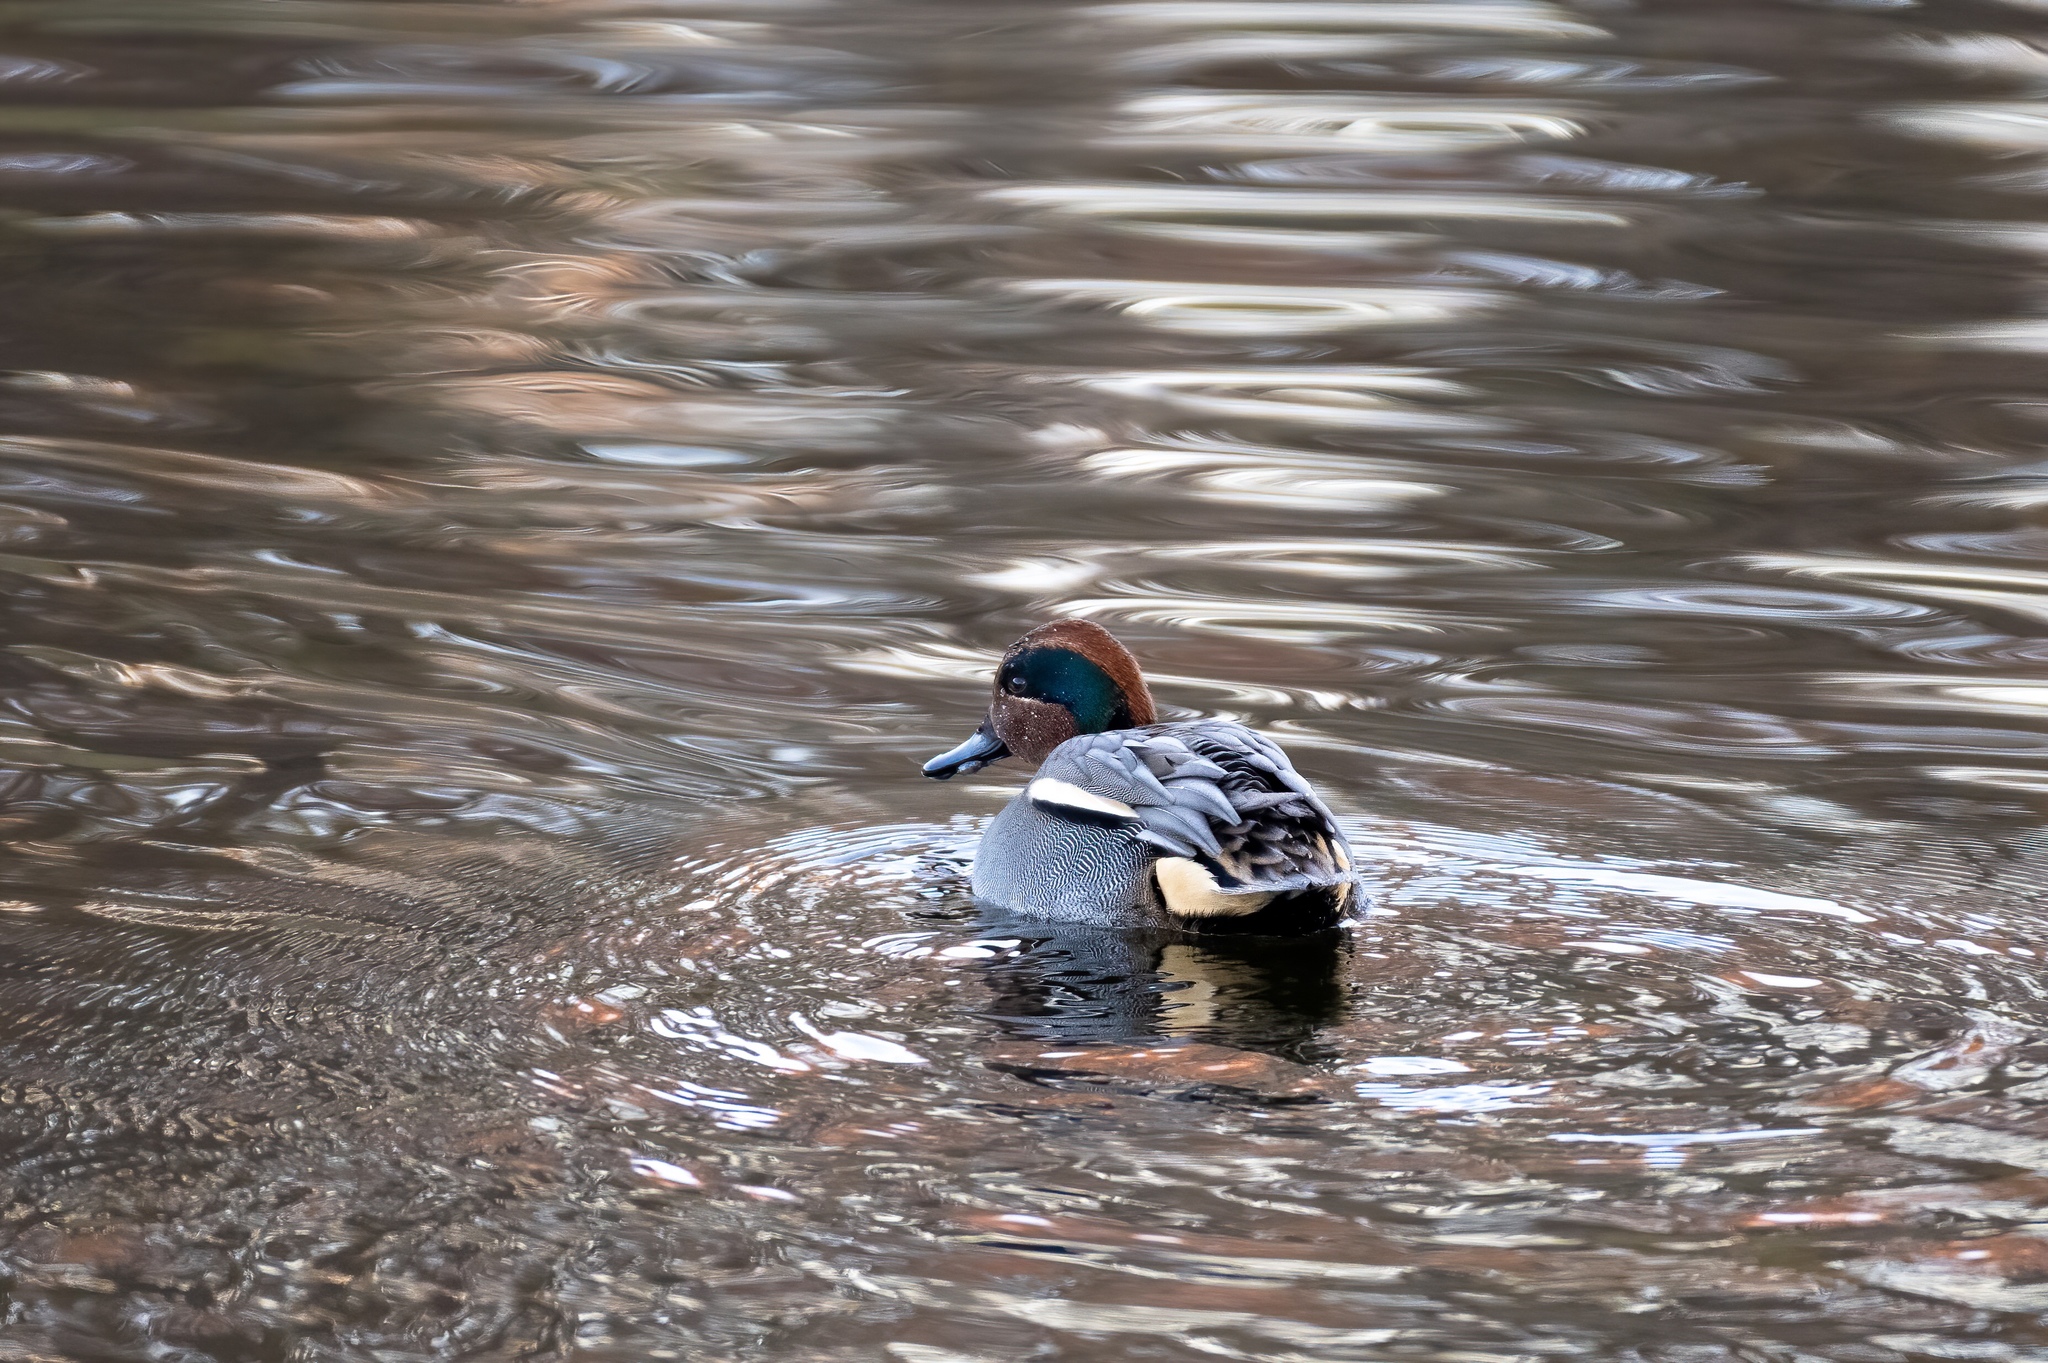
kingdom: Animalia
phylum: Chordata
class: Aves
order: Anseriformes
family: Anatidae
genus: Anas
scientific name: Anas crecca
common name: Eurasian teal
